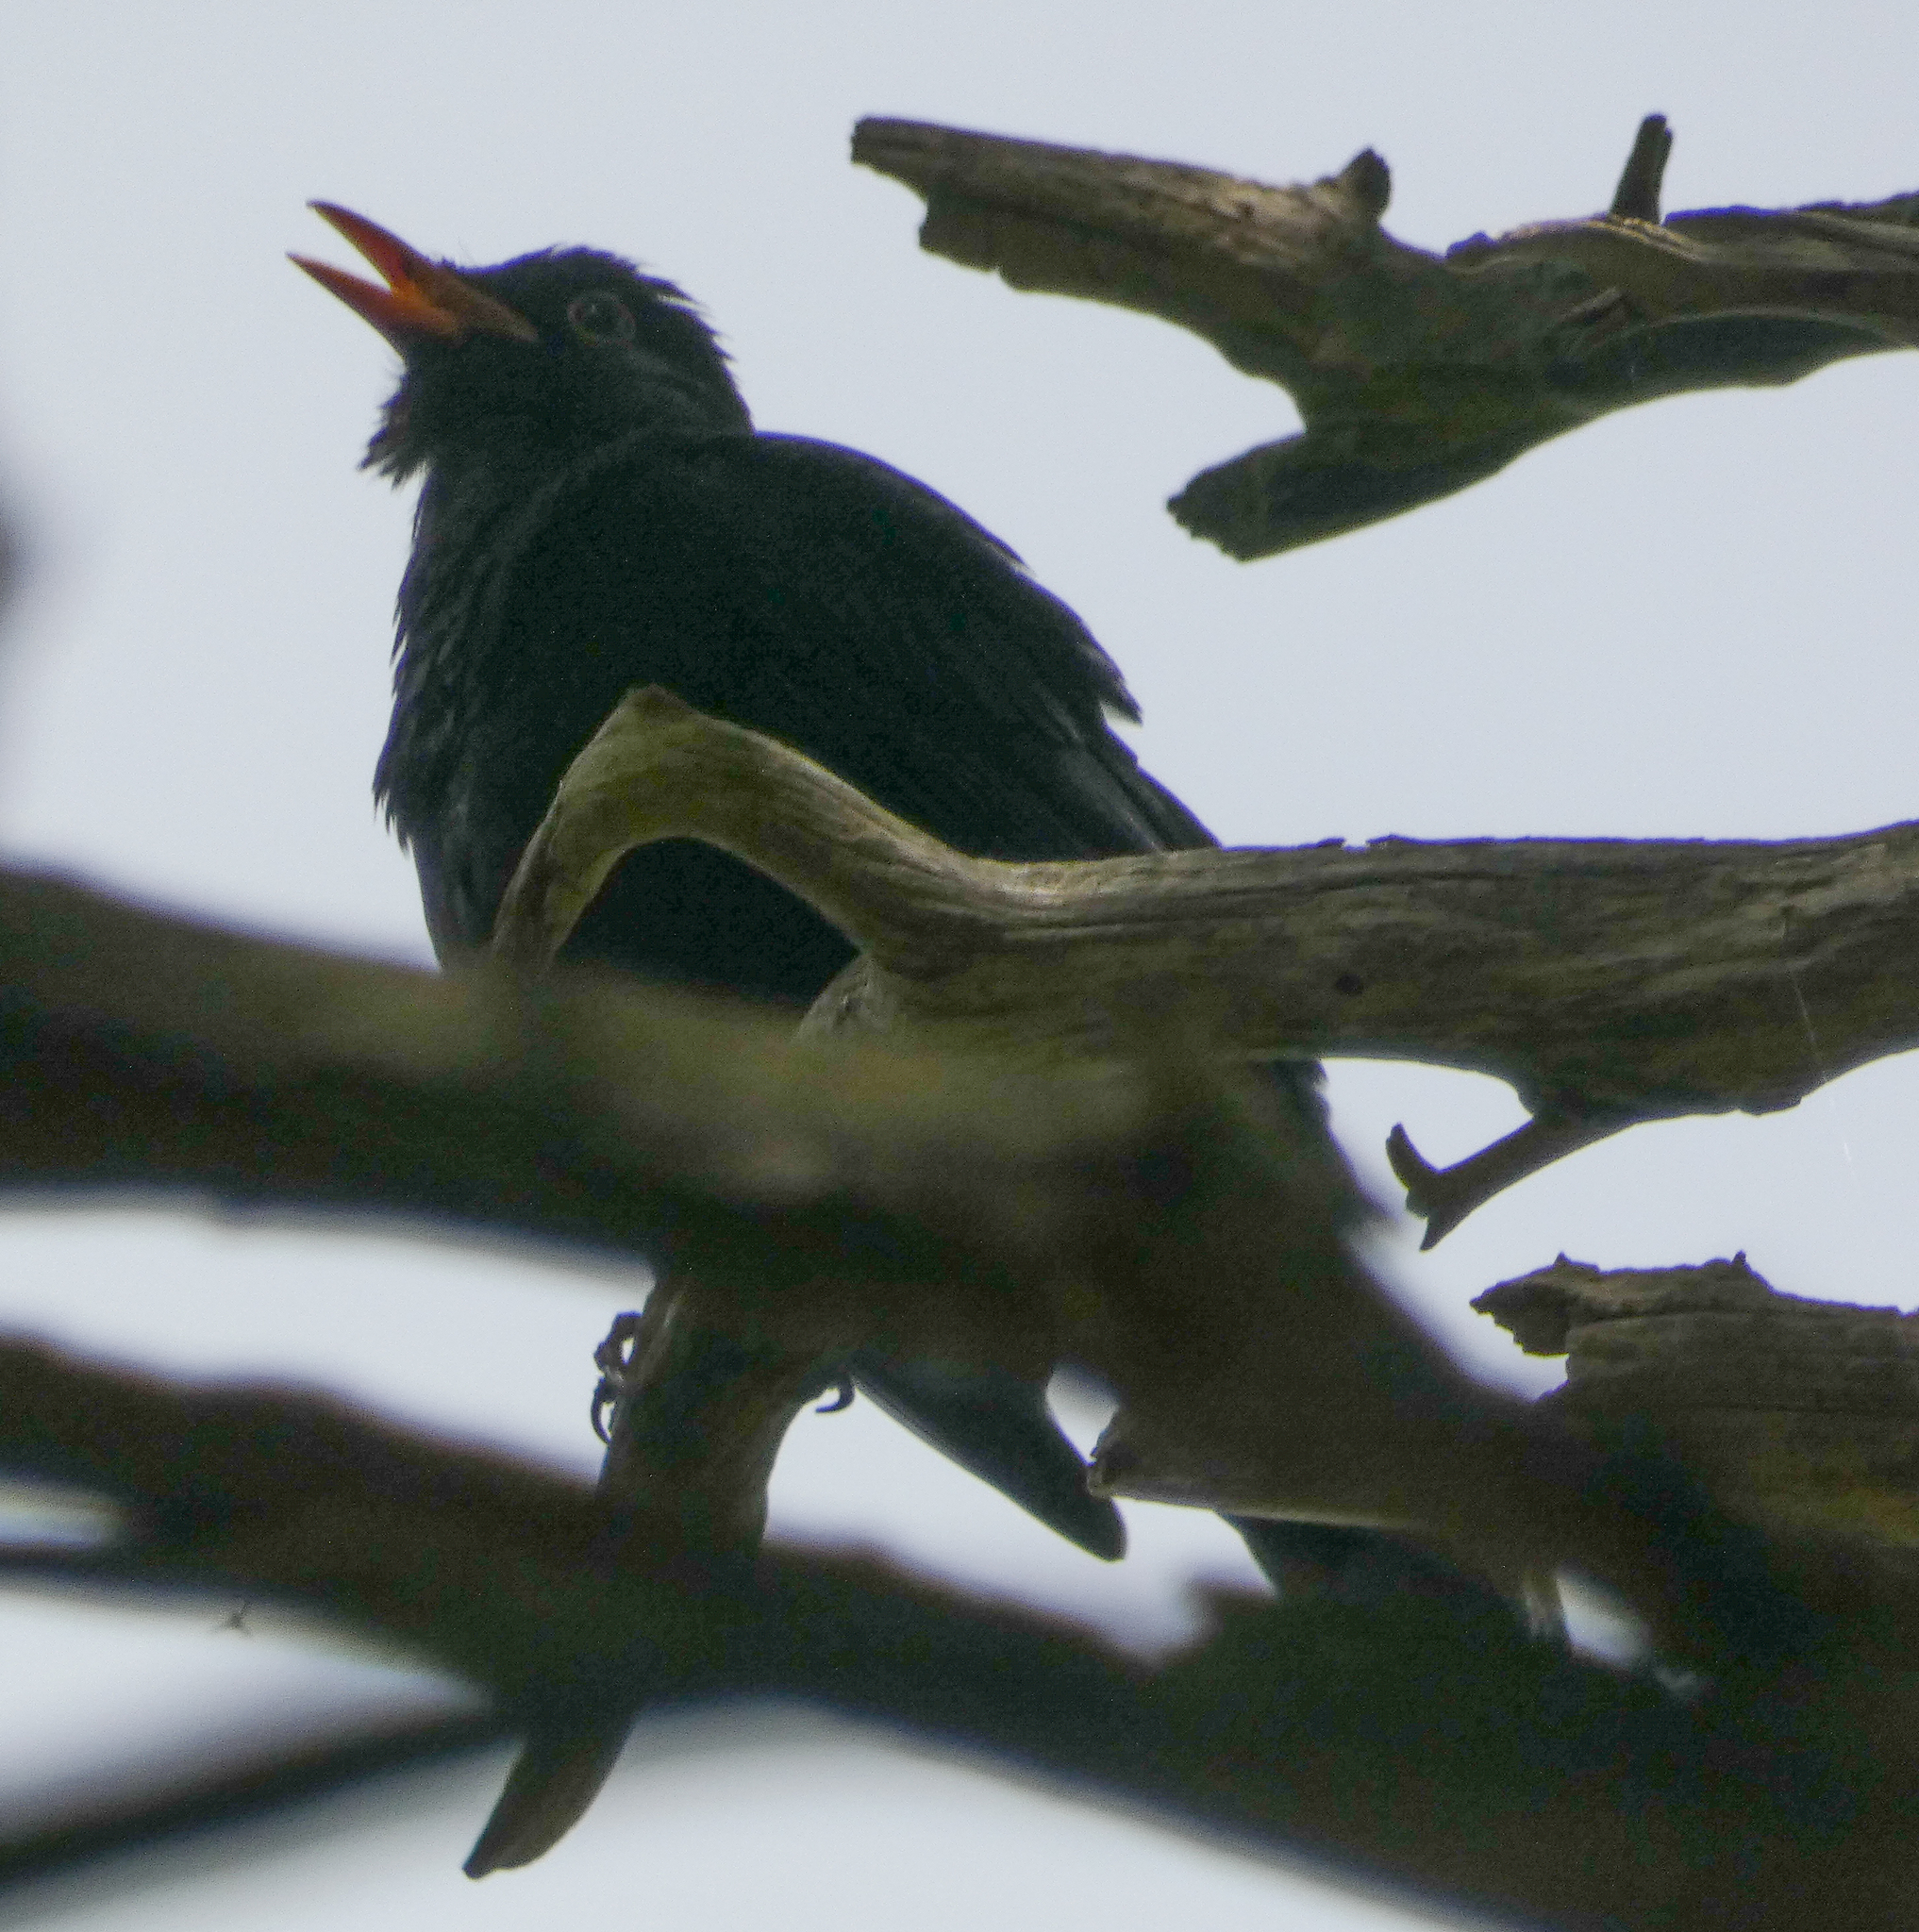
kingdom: Animalia
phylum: Chordata
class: Aves
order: Passeriformes
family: Turdidae
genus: Turdus
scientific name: Turdus merula
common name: Common blackbird
